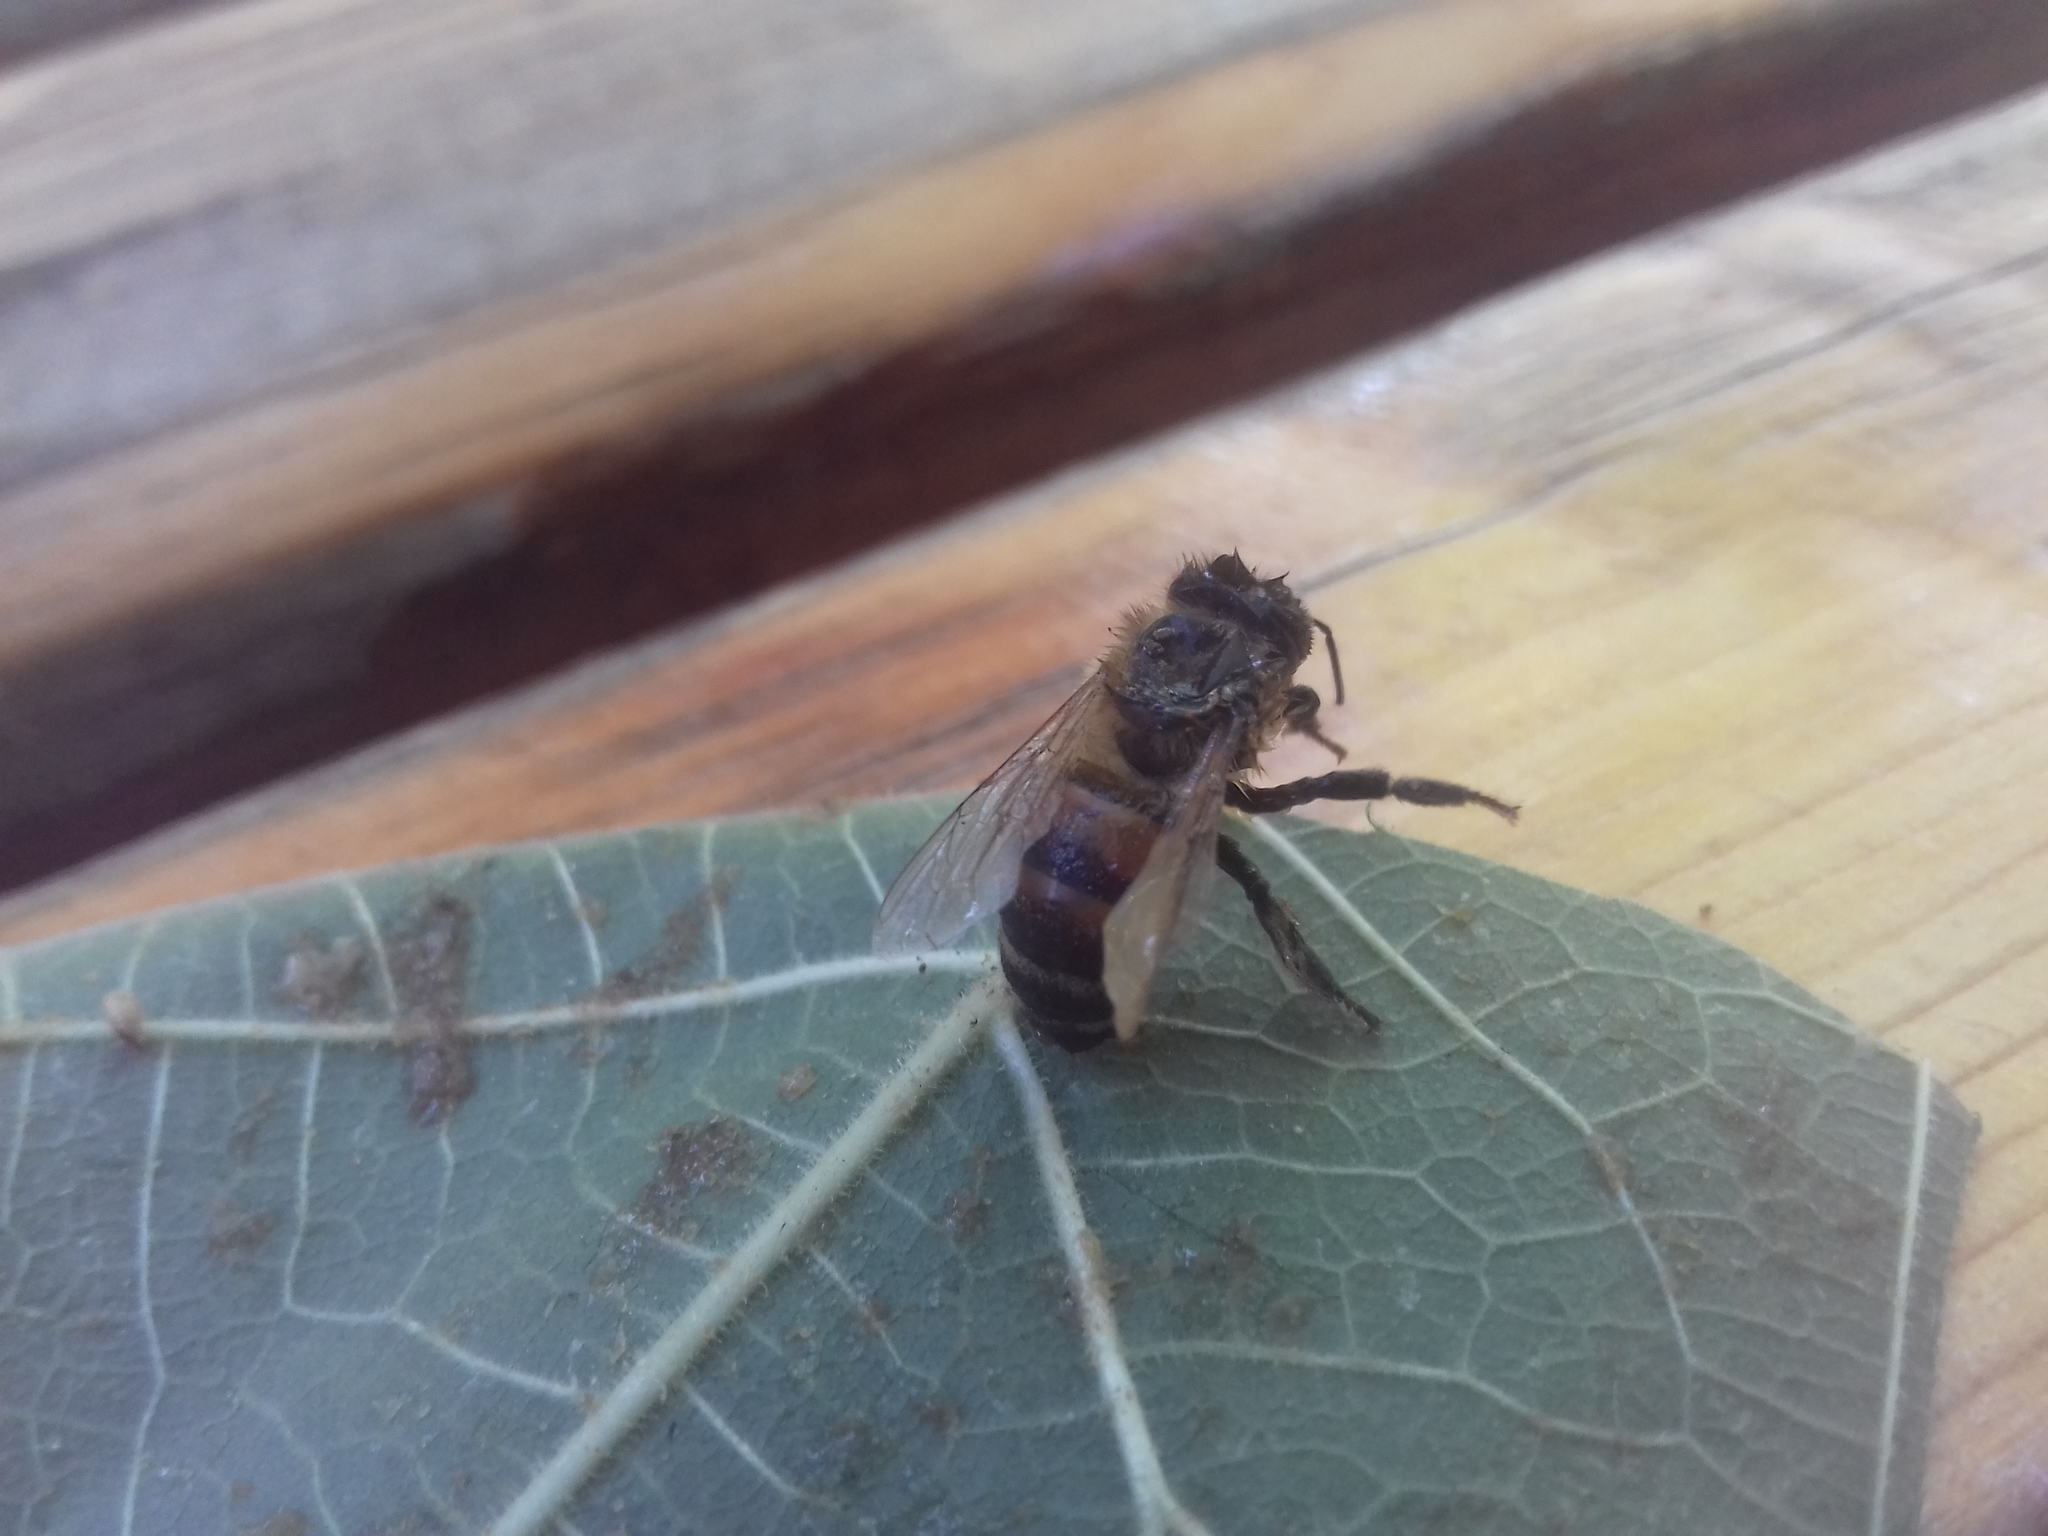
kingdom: Animalia
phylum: Arthropoda
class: Insecta
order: Hymenoptera
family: Apidae
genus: Apis
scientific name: Apis mellifera
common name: Honey bee
